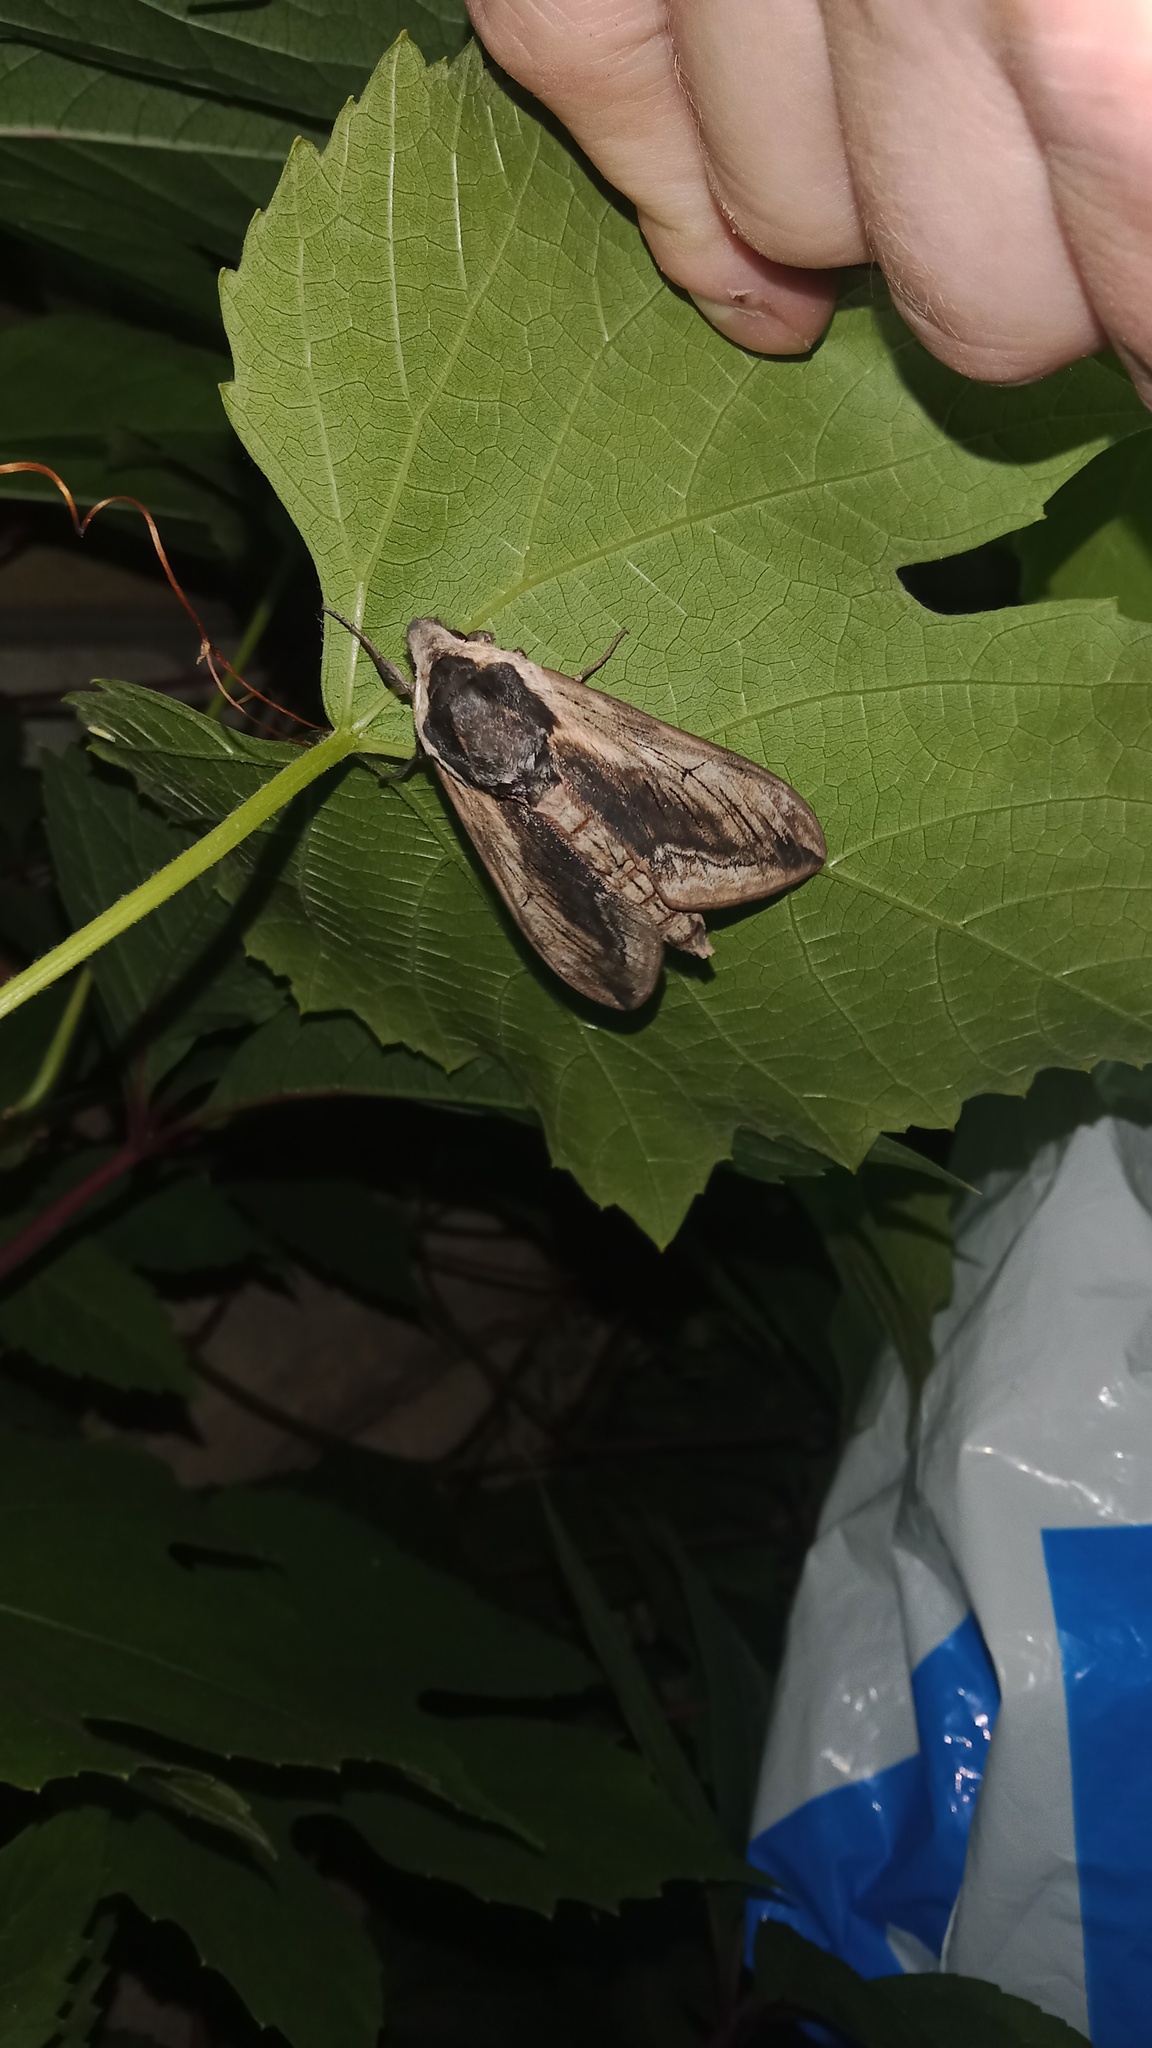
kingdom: Animalia
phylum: Arthropoda
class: Insecta
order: Lepidoptera
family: Sphingidae
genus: Sphinx
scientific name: Sphinx ligustri
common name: Privet hawk-moth
